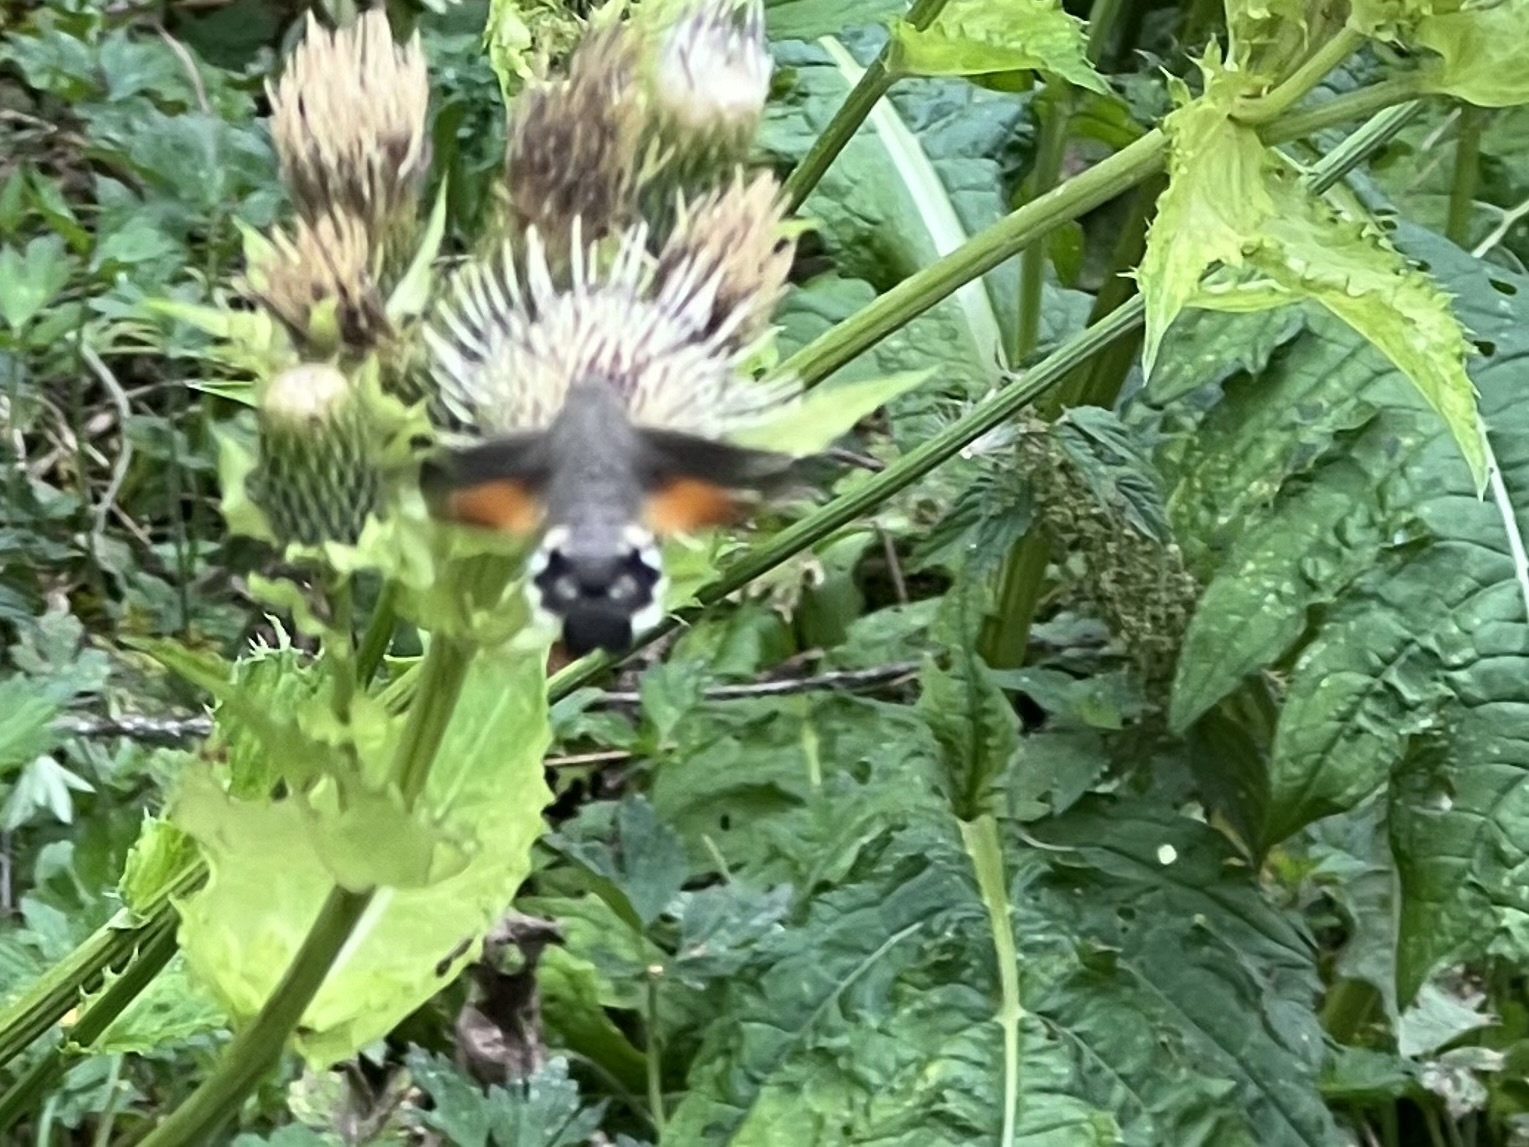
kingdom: Animalia
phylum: Arthropoda
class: Insecta
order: Lepidoptera
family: Sphingidae
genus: Macroglossum
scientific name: Macroglossum stellatarum
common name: Humming-bird hawk-moth
